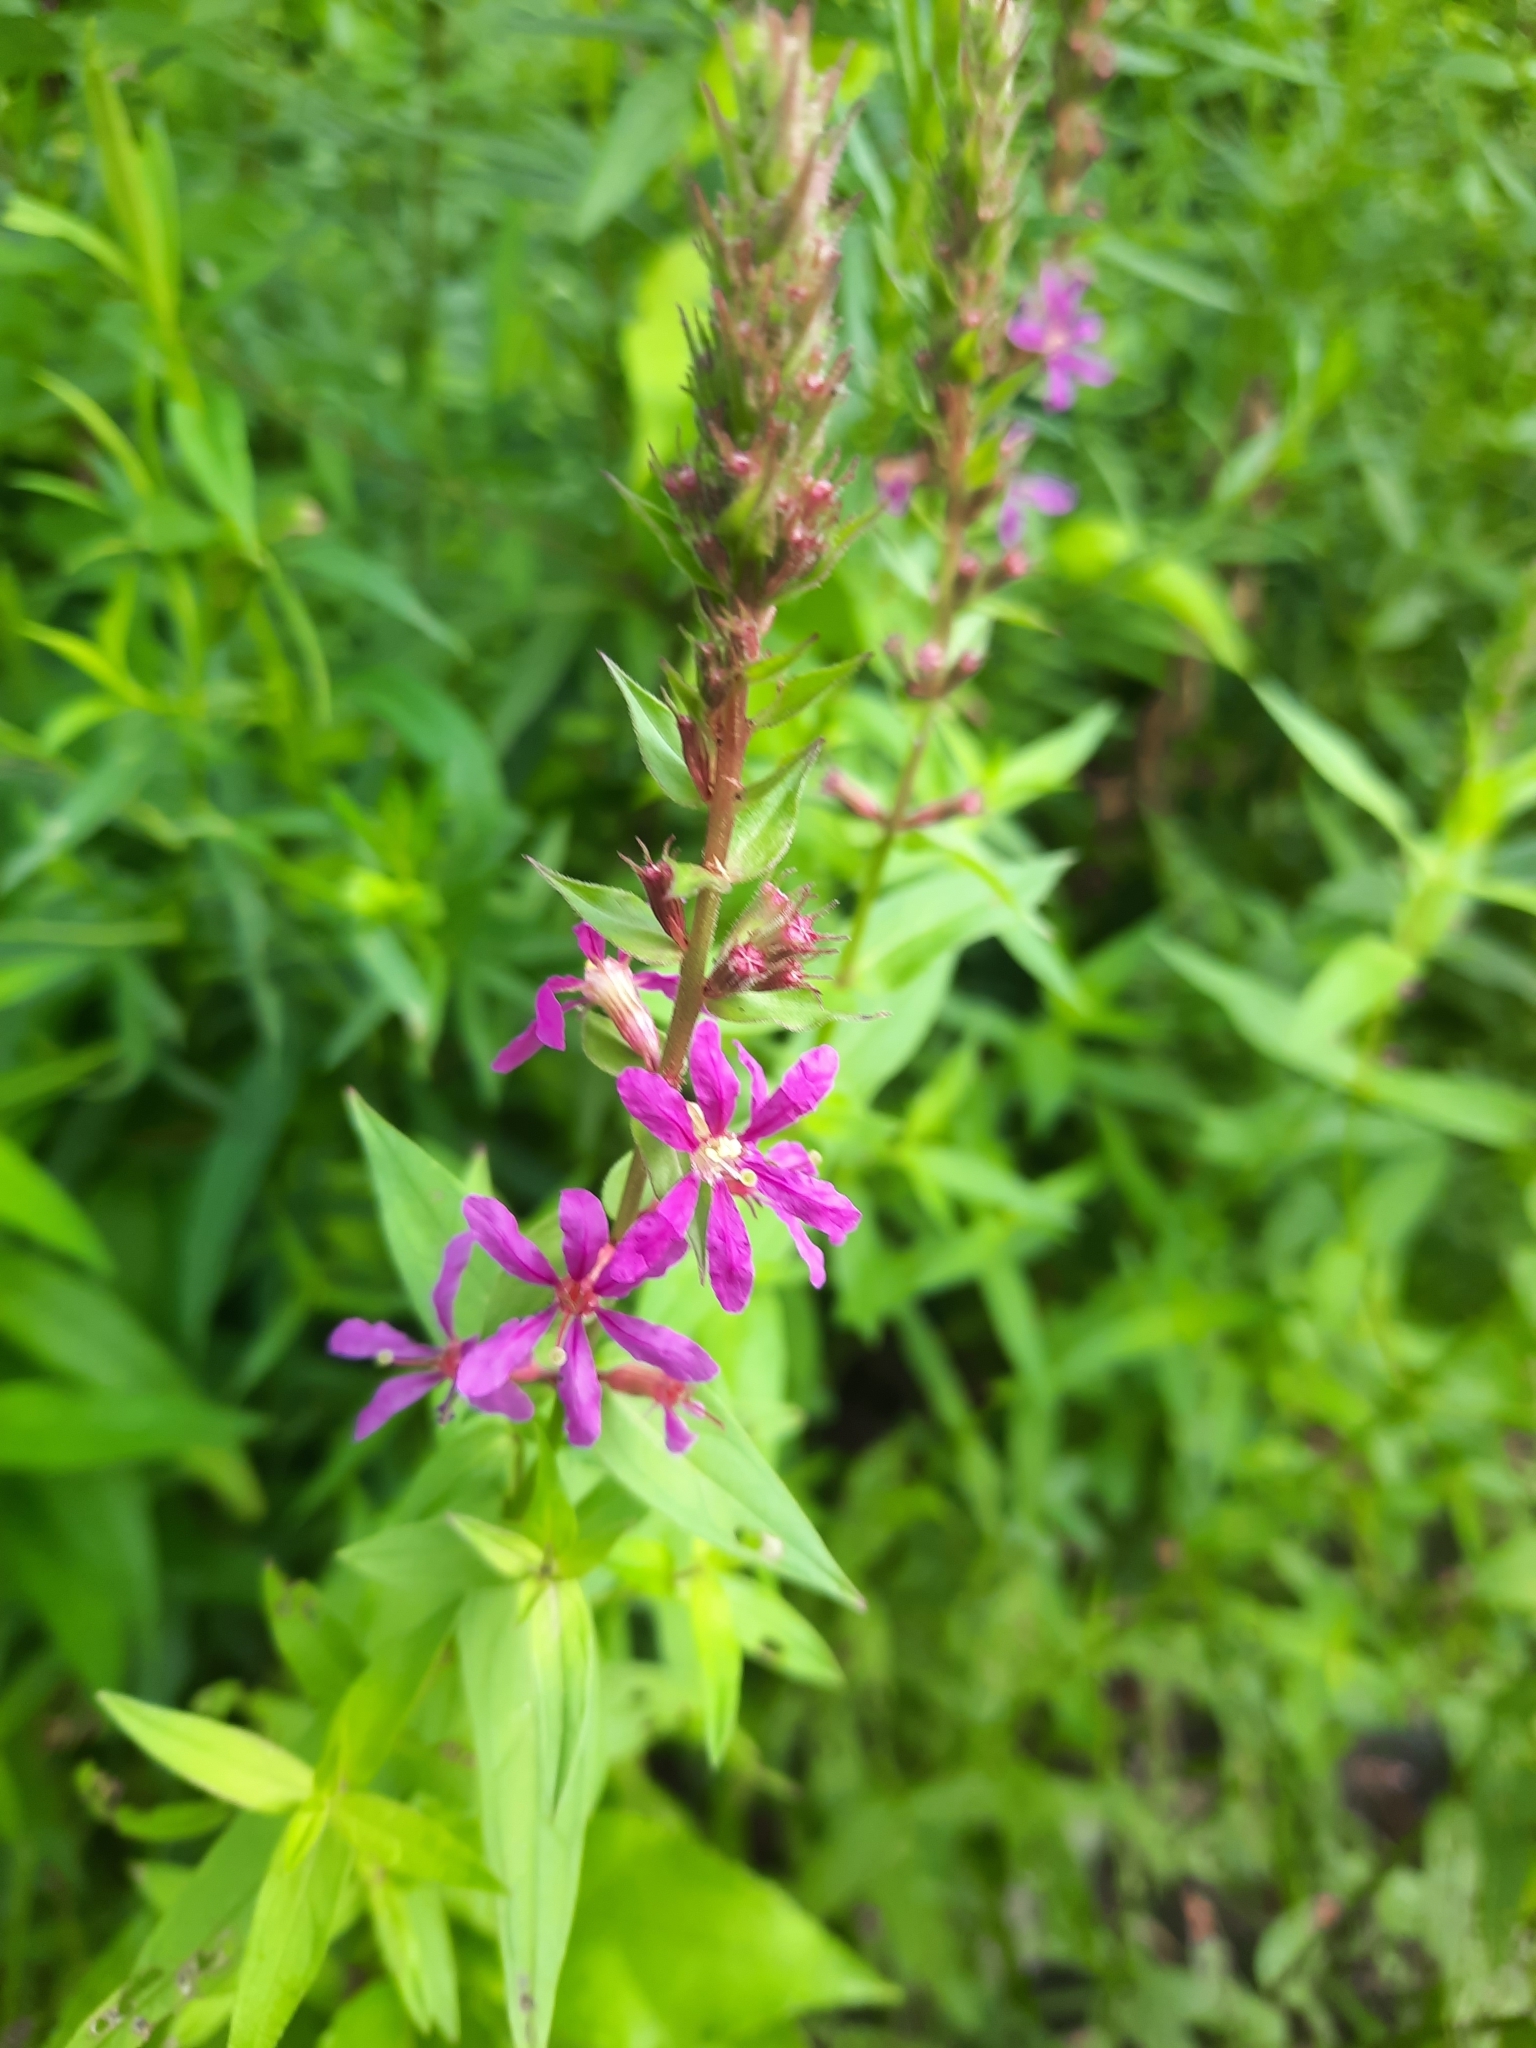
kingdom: Plantae
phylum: Tracheophyta
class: Magnoliopsida
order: Myrtales
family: Lythraceae
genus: Lythrum
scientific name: Lythrum salicaria
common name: Purple loosestrife
